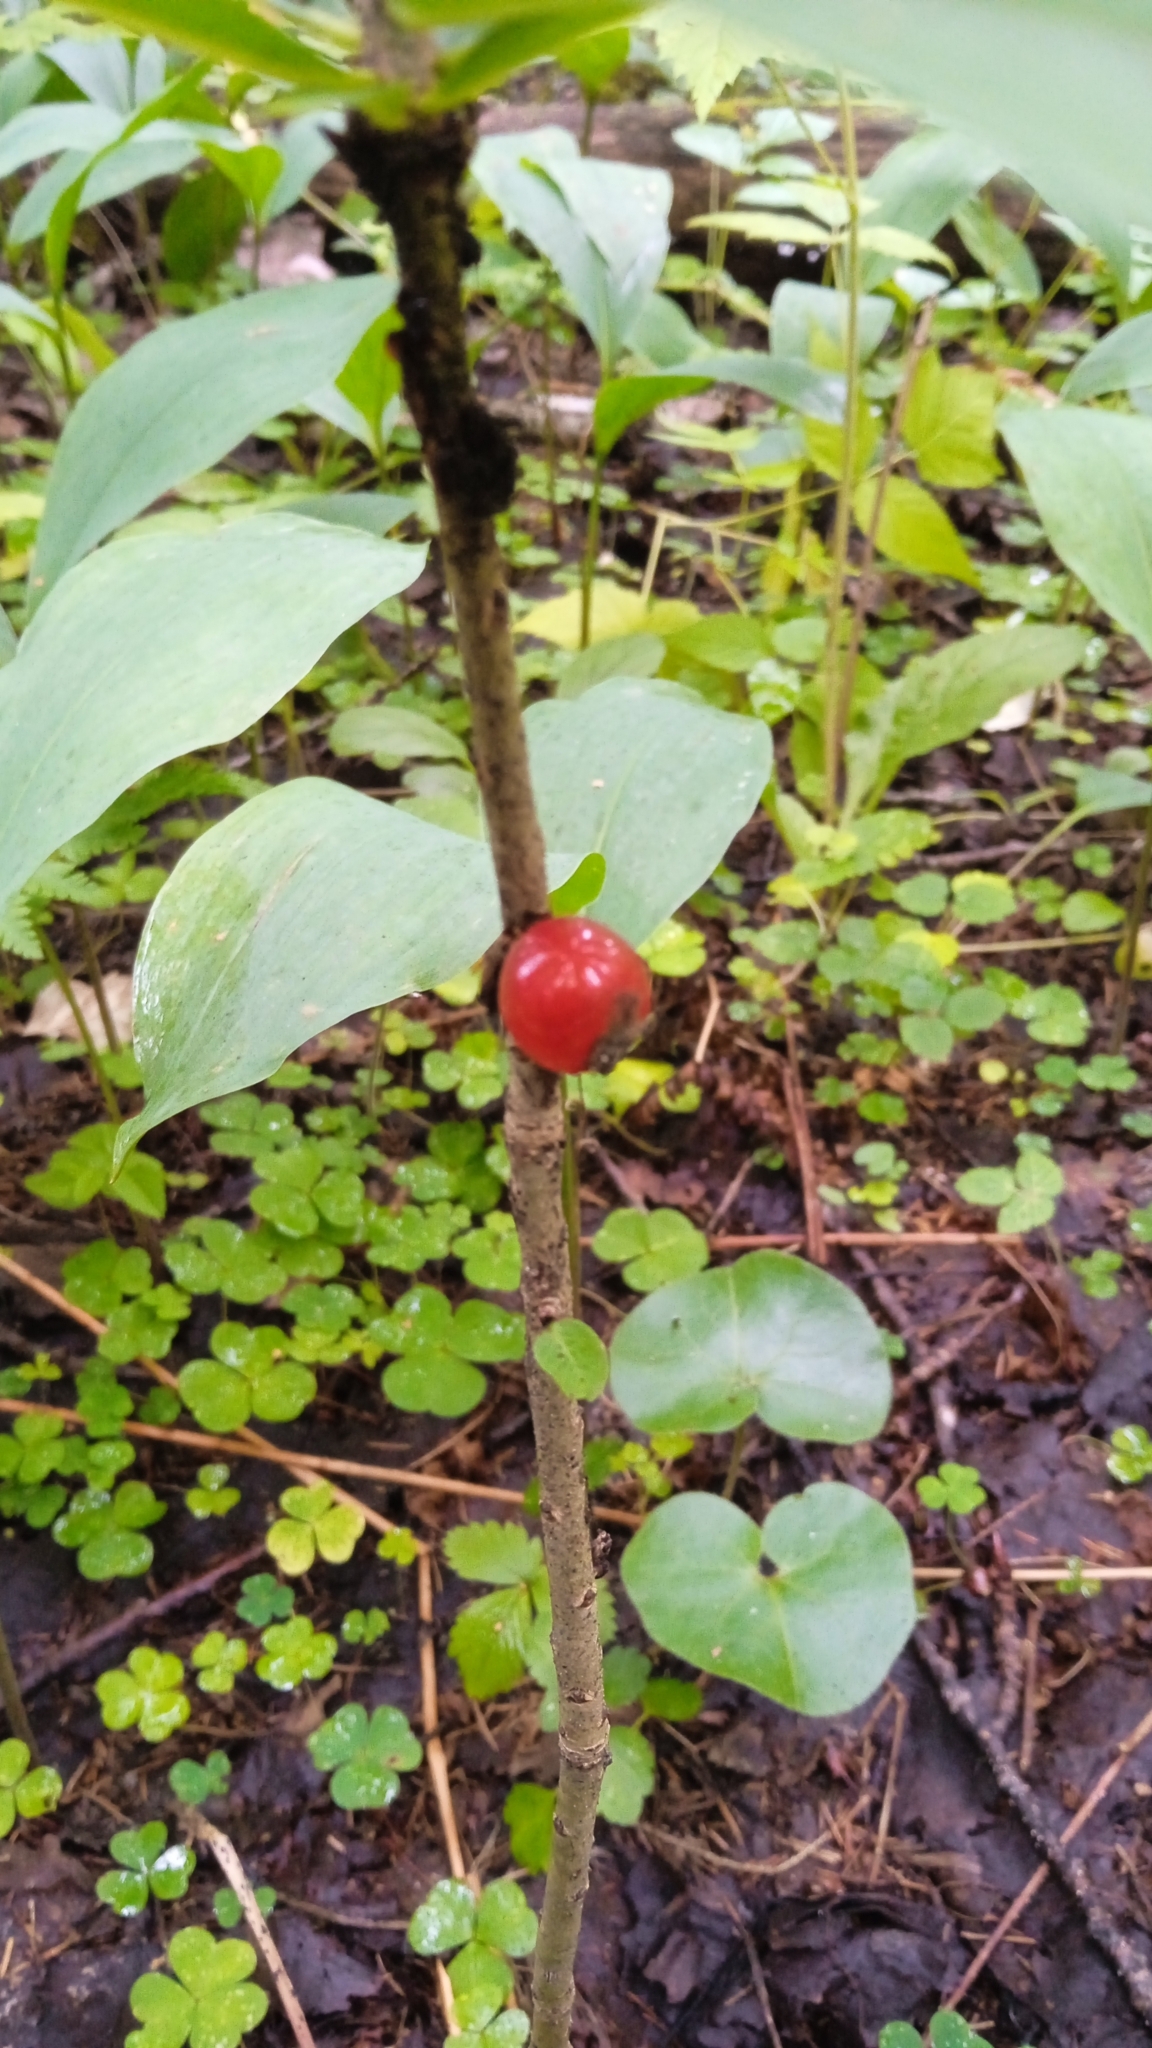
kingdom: Plantae
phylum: Tracheophyta
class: Magnoliopsida
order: Malvales
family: Thymelaeaceae
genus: Daphne
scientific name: Daphne mezereum
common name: Mezereon
